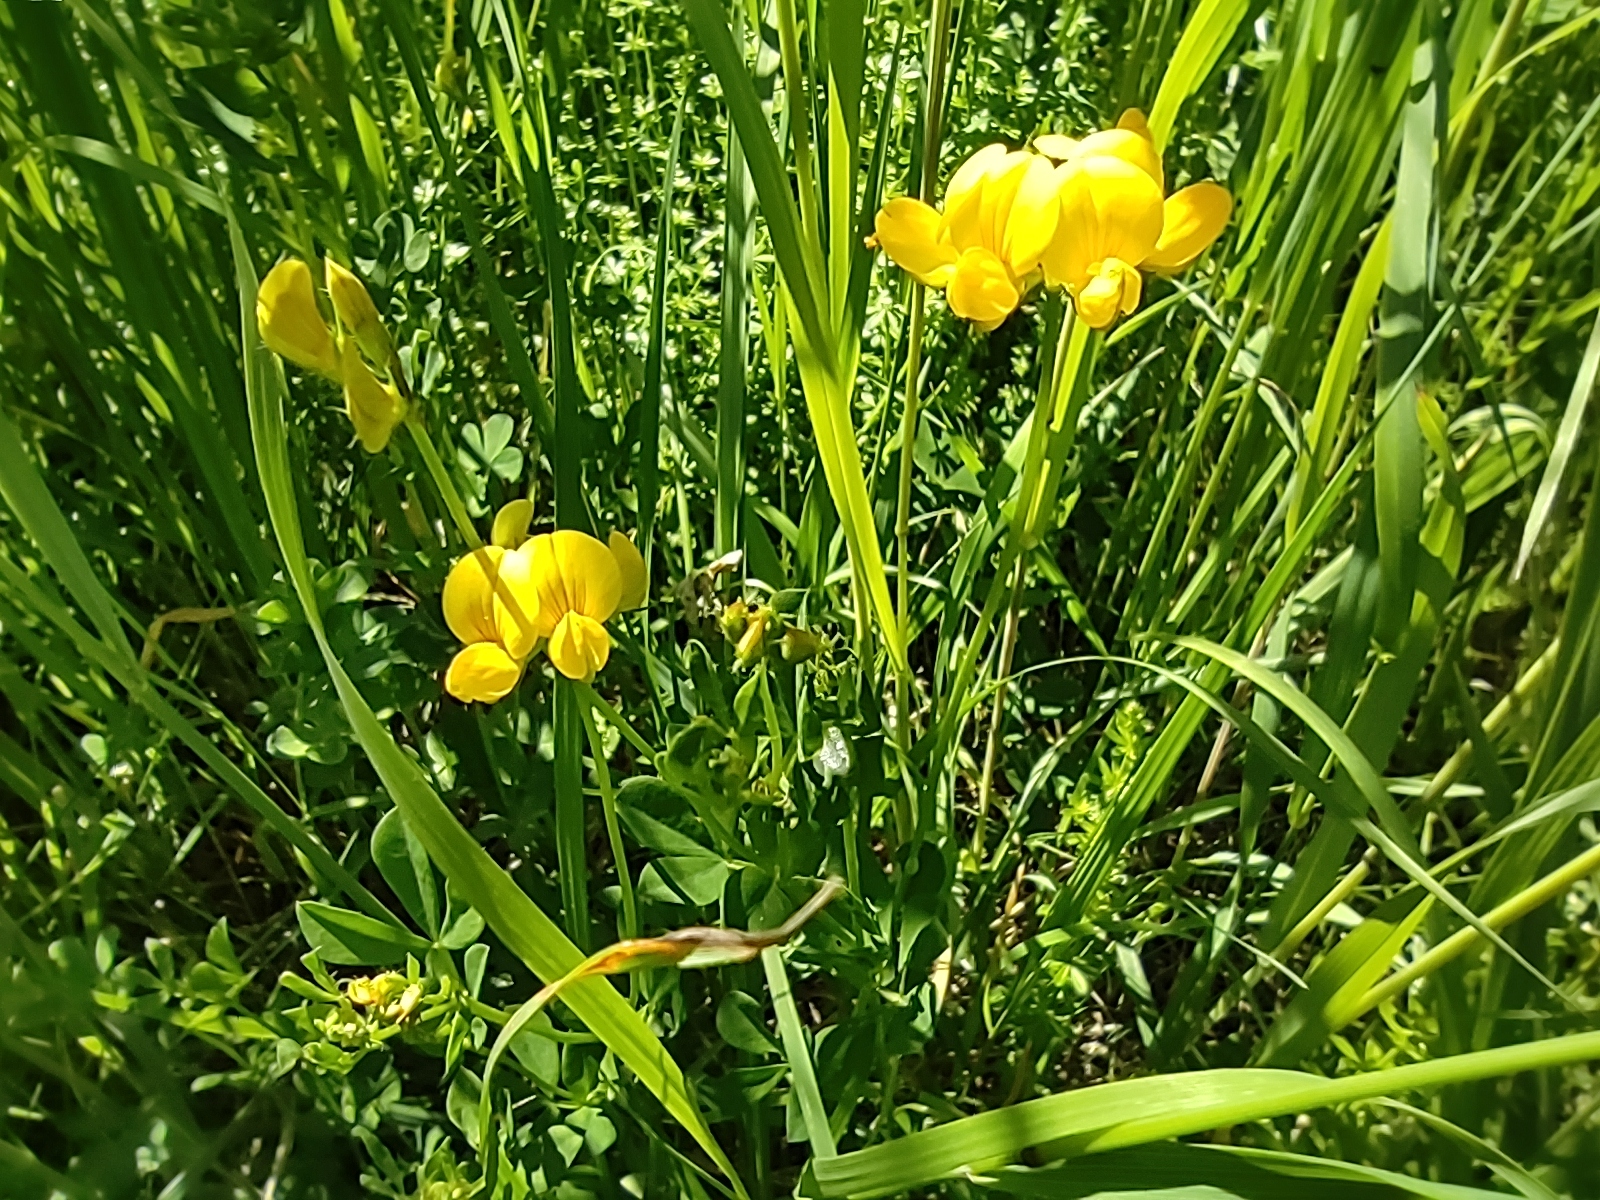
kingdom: Plantae
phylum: Tracheophyta
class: Magnoliopsida
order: Fabales
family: Fabaceae
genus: Lotus
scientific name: Lotus corniculatus
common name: Common bird's-foot-trefoil
